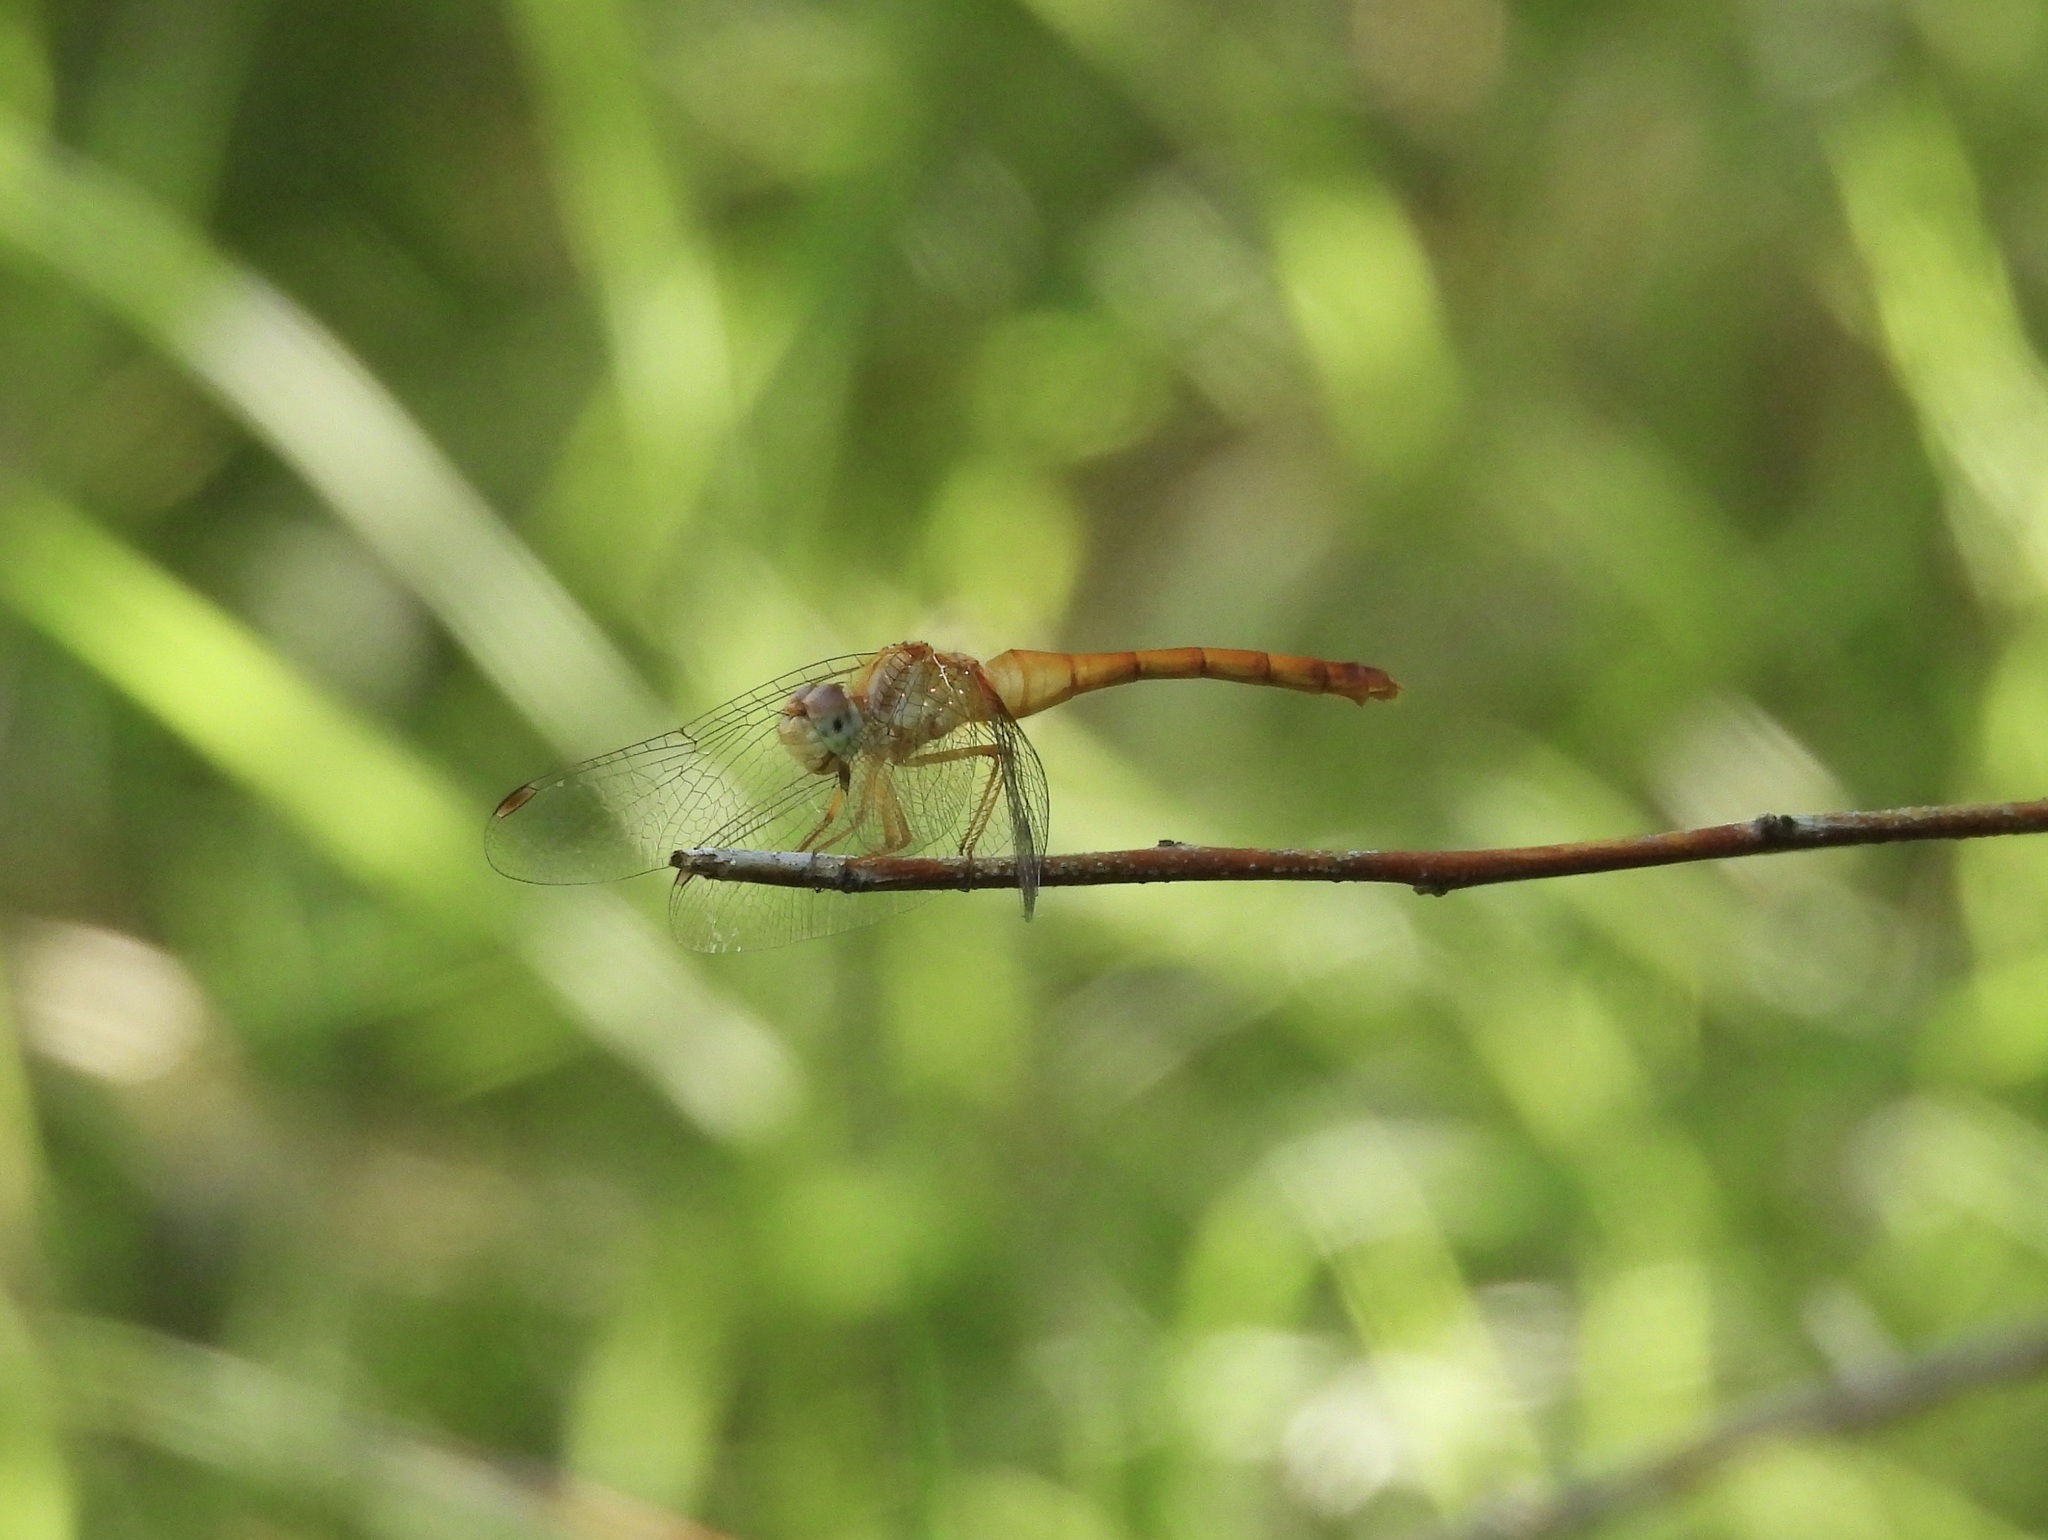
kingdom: Animalia
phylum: Arthropoda
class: Insecta
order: Odonata
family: Libellulidae
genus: Sympetrum
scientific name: Sympetrum vicinum
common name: Autumn meadowhawk
